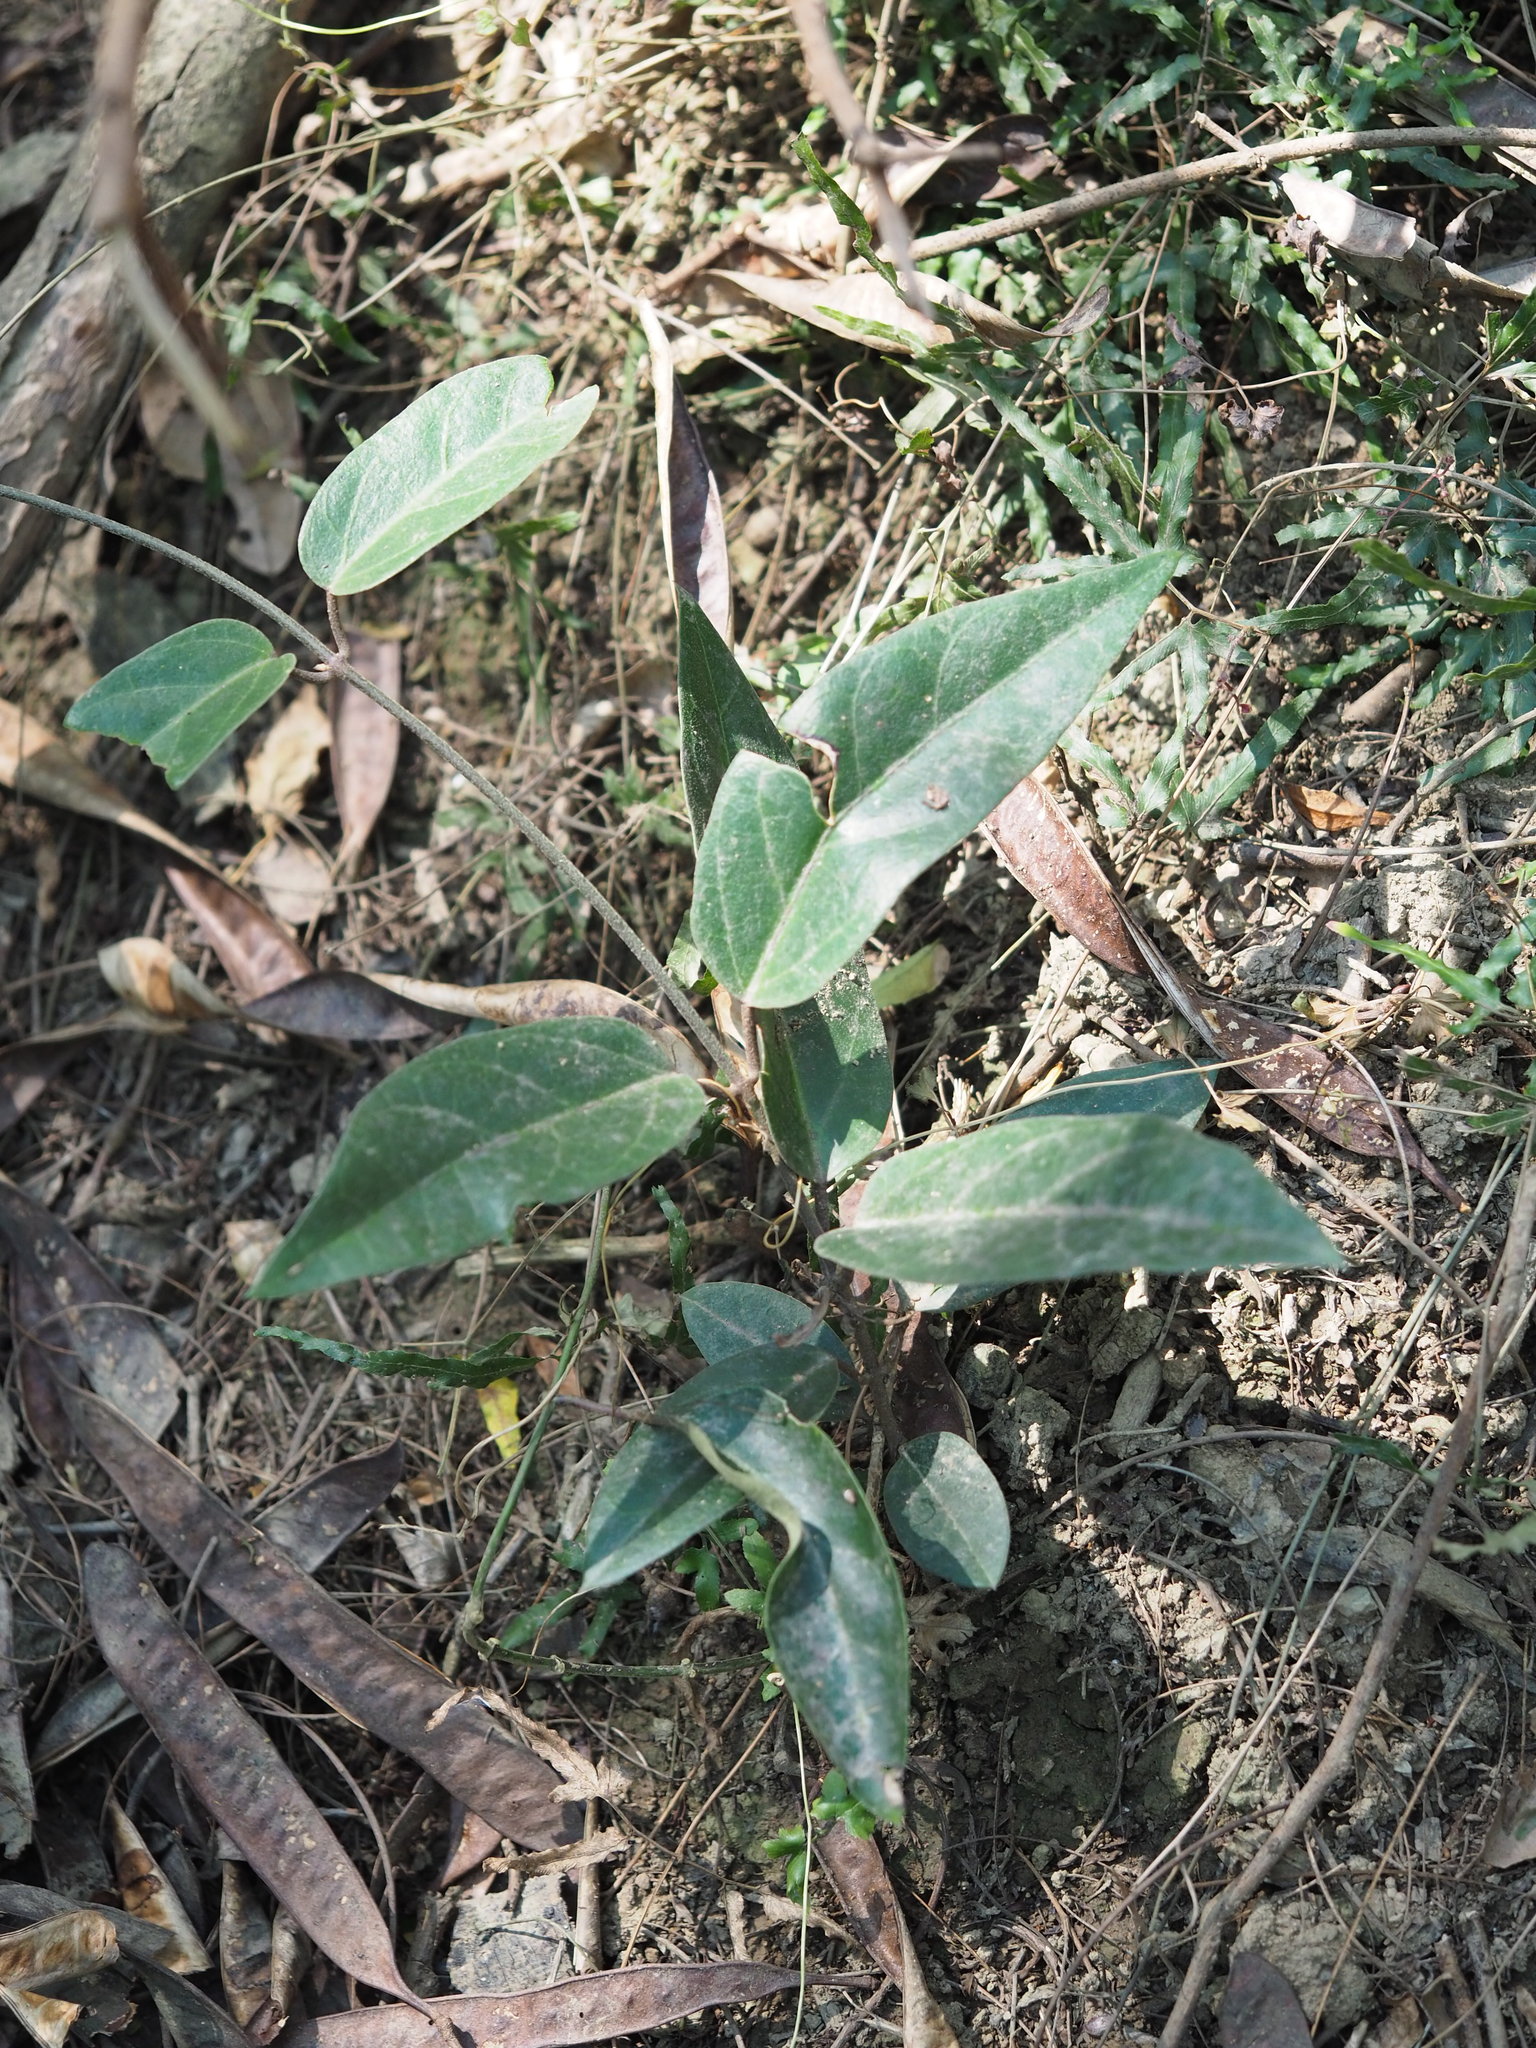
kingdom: Plantae
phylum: Tracheophyta
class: Magnoliopsida
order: Gentianales
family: Rubiaceae
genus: Paederia
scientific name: Paederia foetida
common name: Stinkvine
